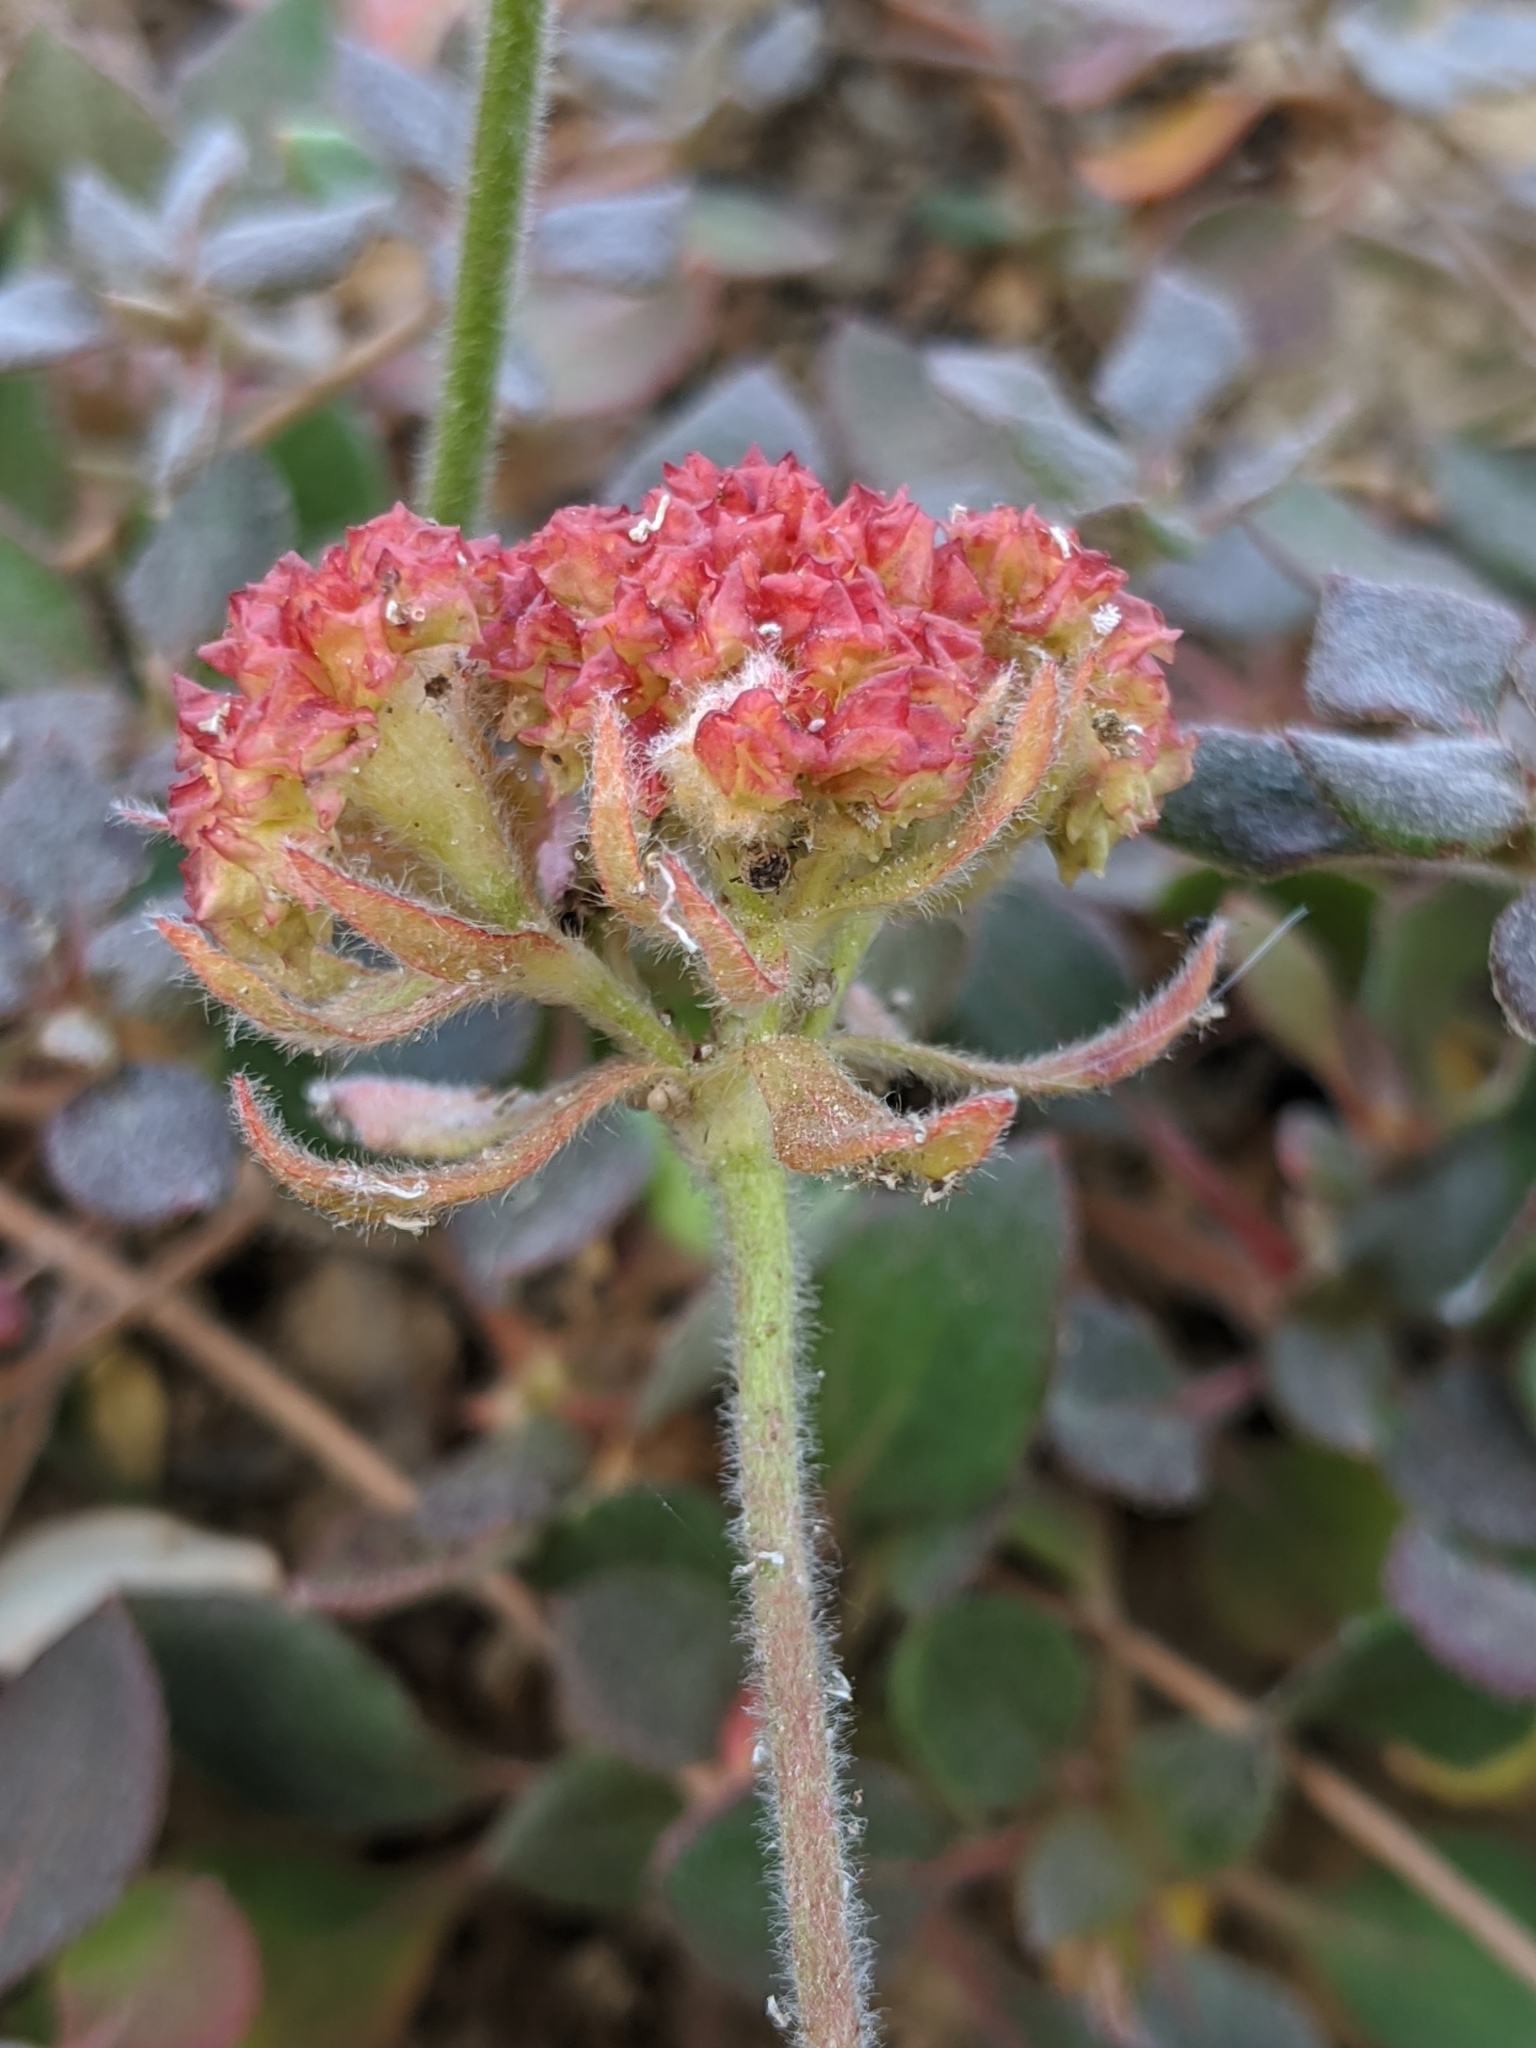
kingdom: Plantae
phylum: Tracheophyta
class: Magnoliopsida
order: Caryophyllales
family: Polygonaceae
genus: Eriogonum
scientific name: Eriogonum ursinum
